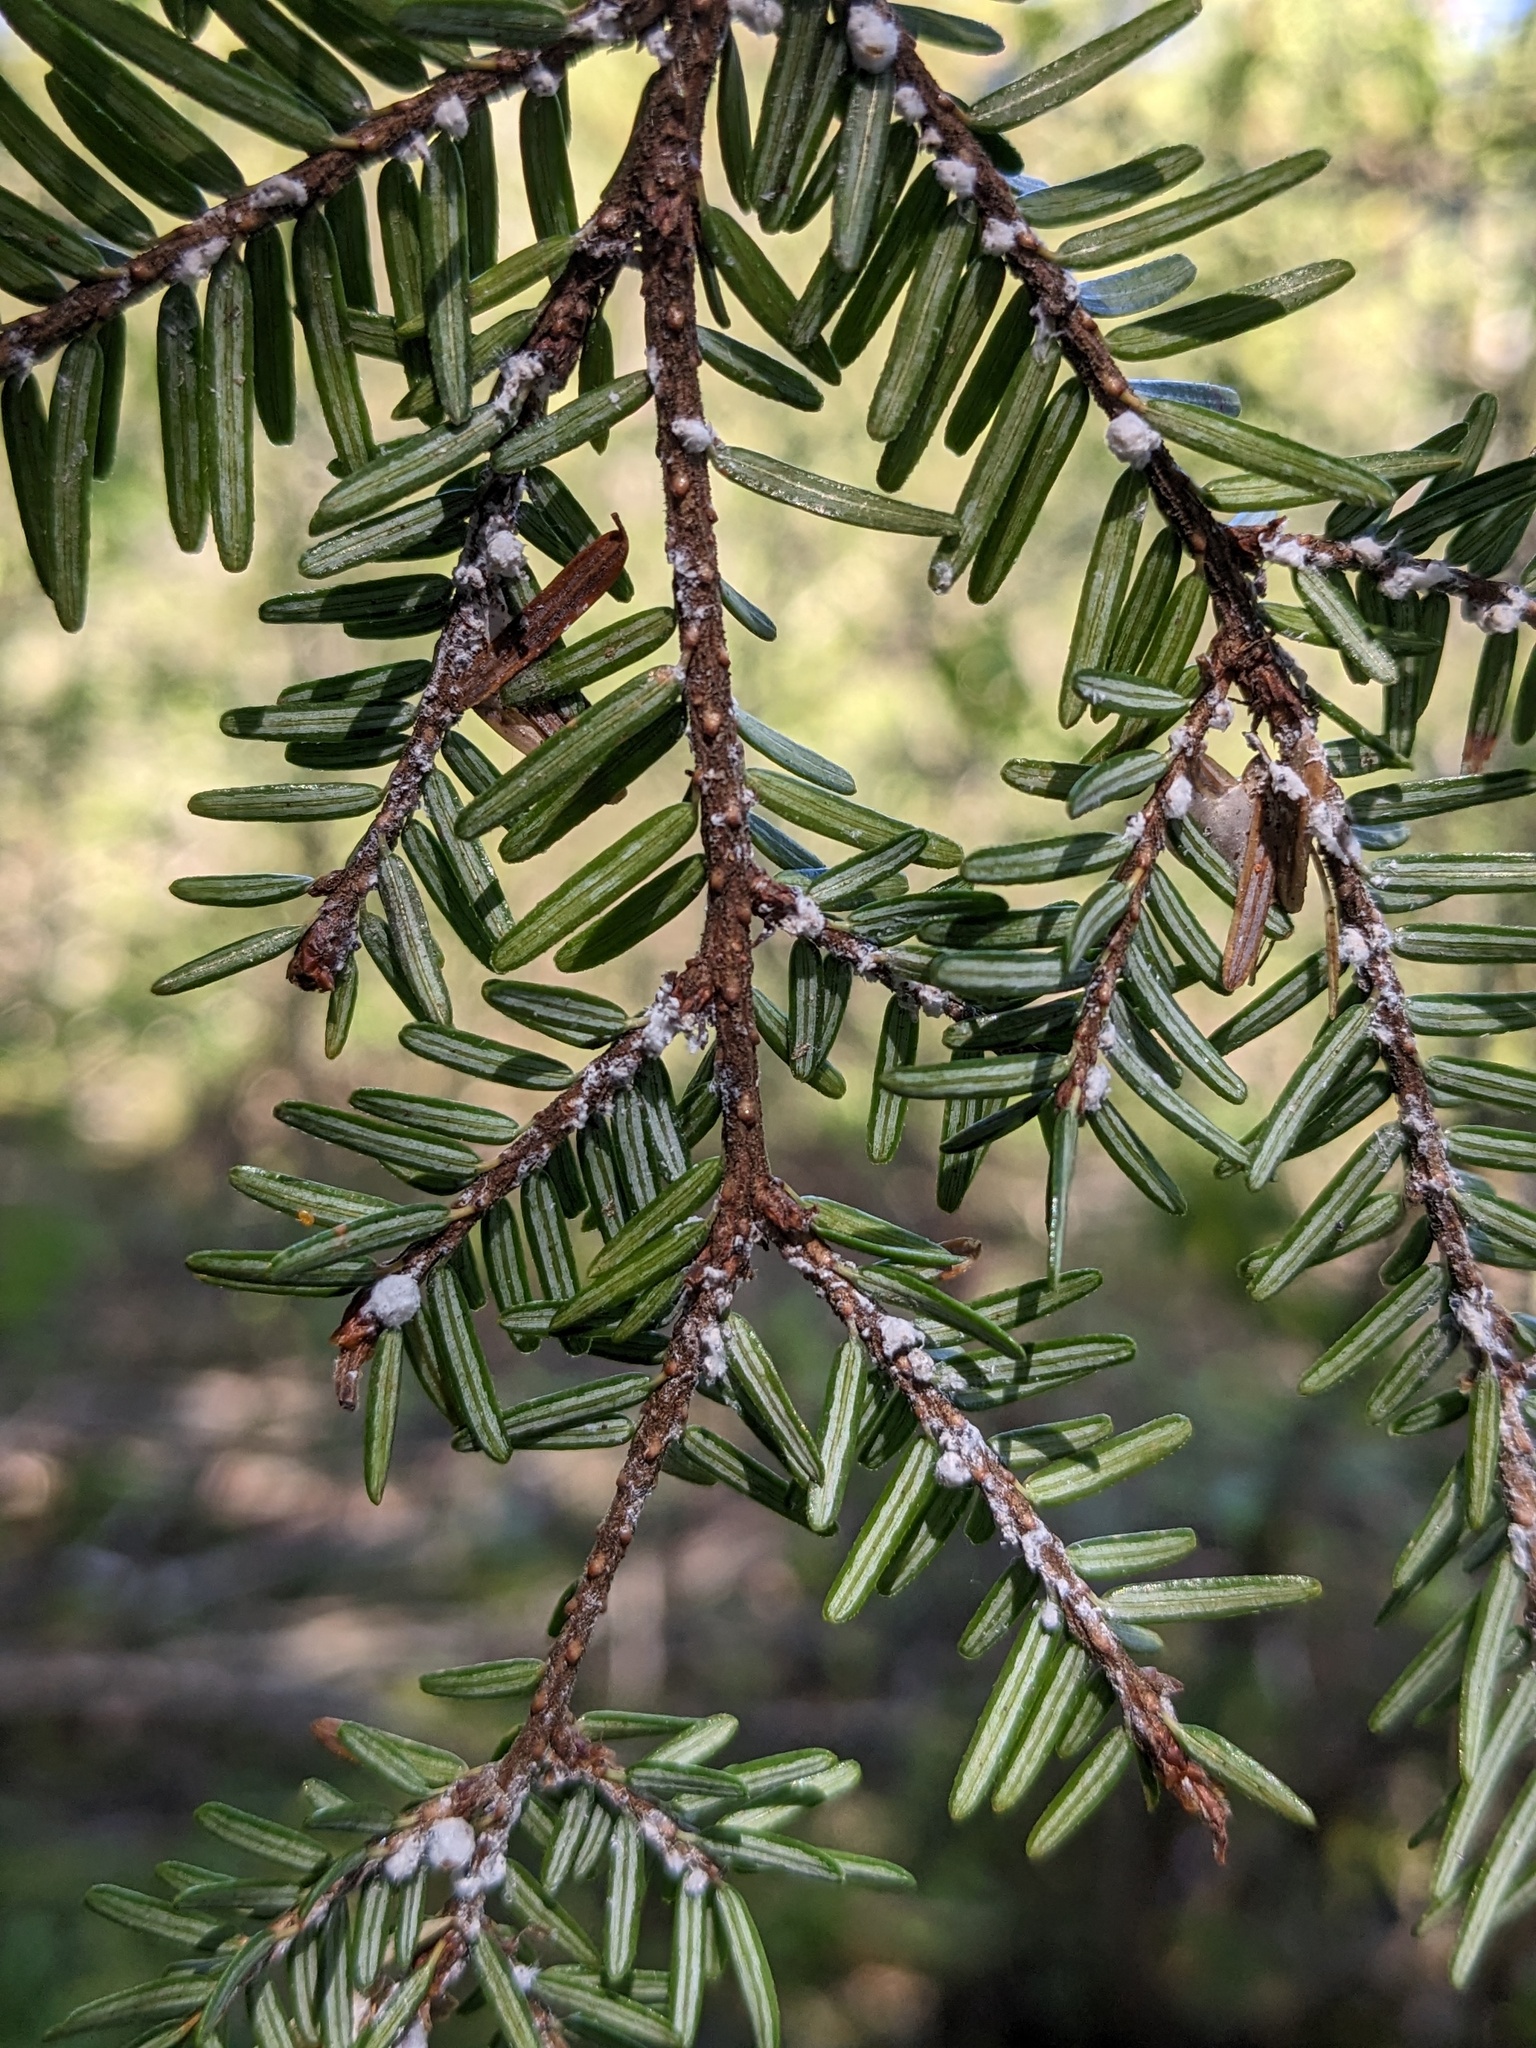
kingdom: Animalia
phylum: Arthropoda
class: Insecta
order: Hemiptera
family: Adelgidae
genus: Adelges
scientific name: Adelges tsugae
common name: Hemlock woolly adelgid
